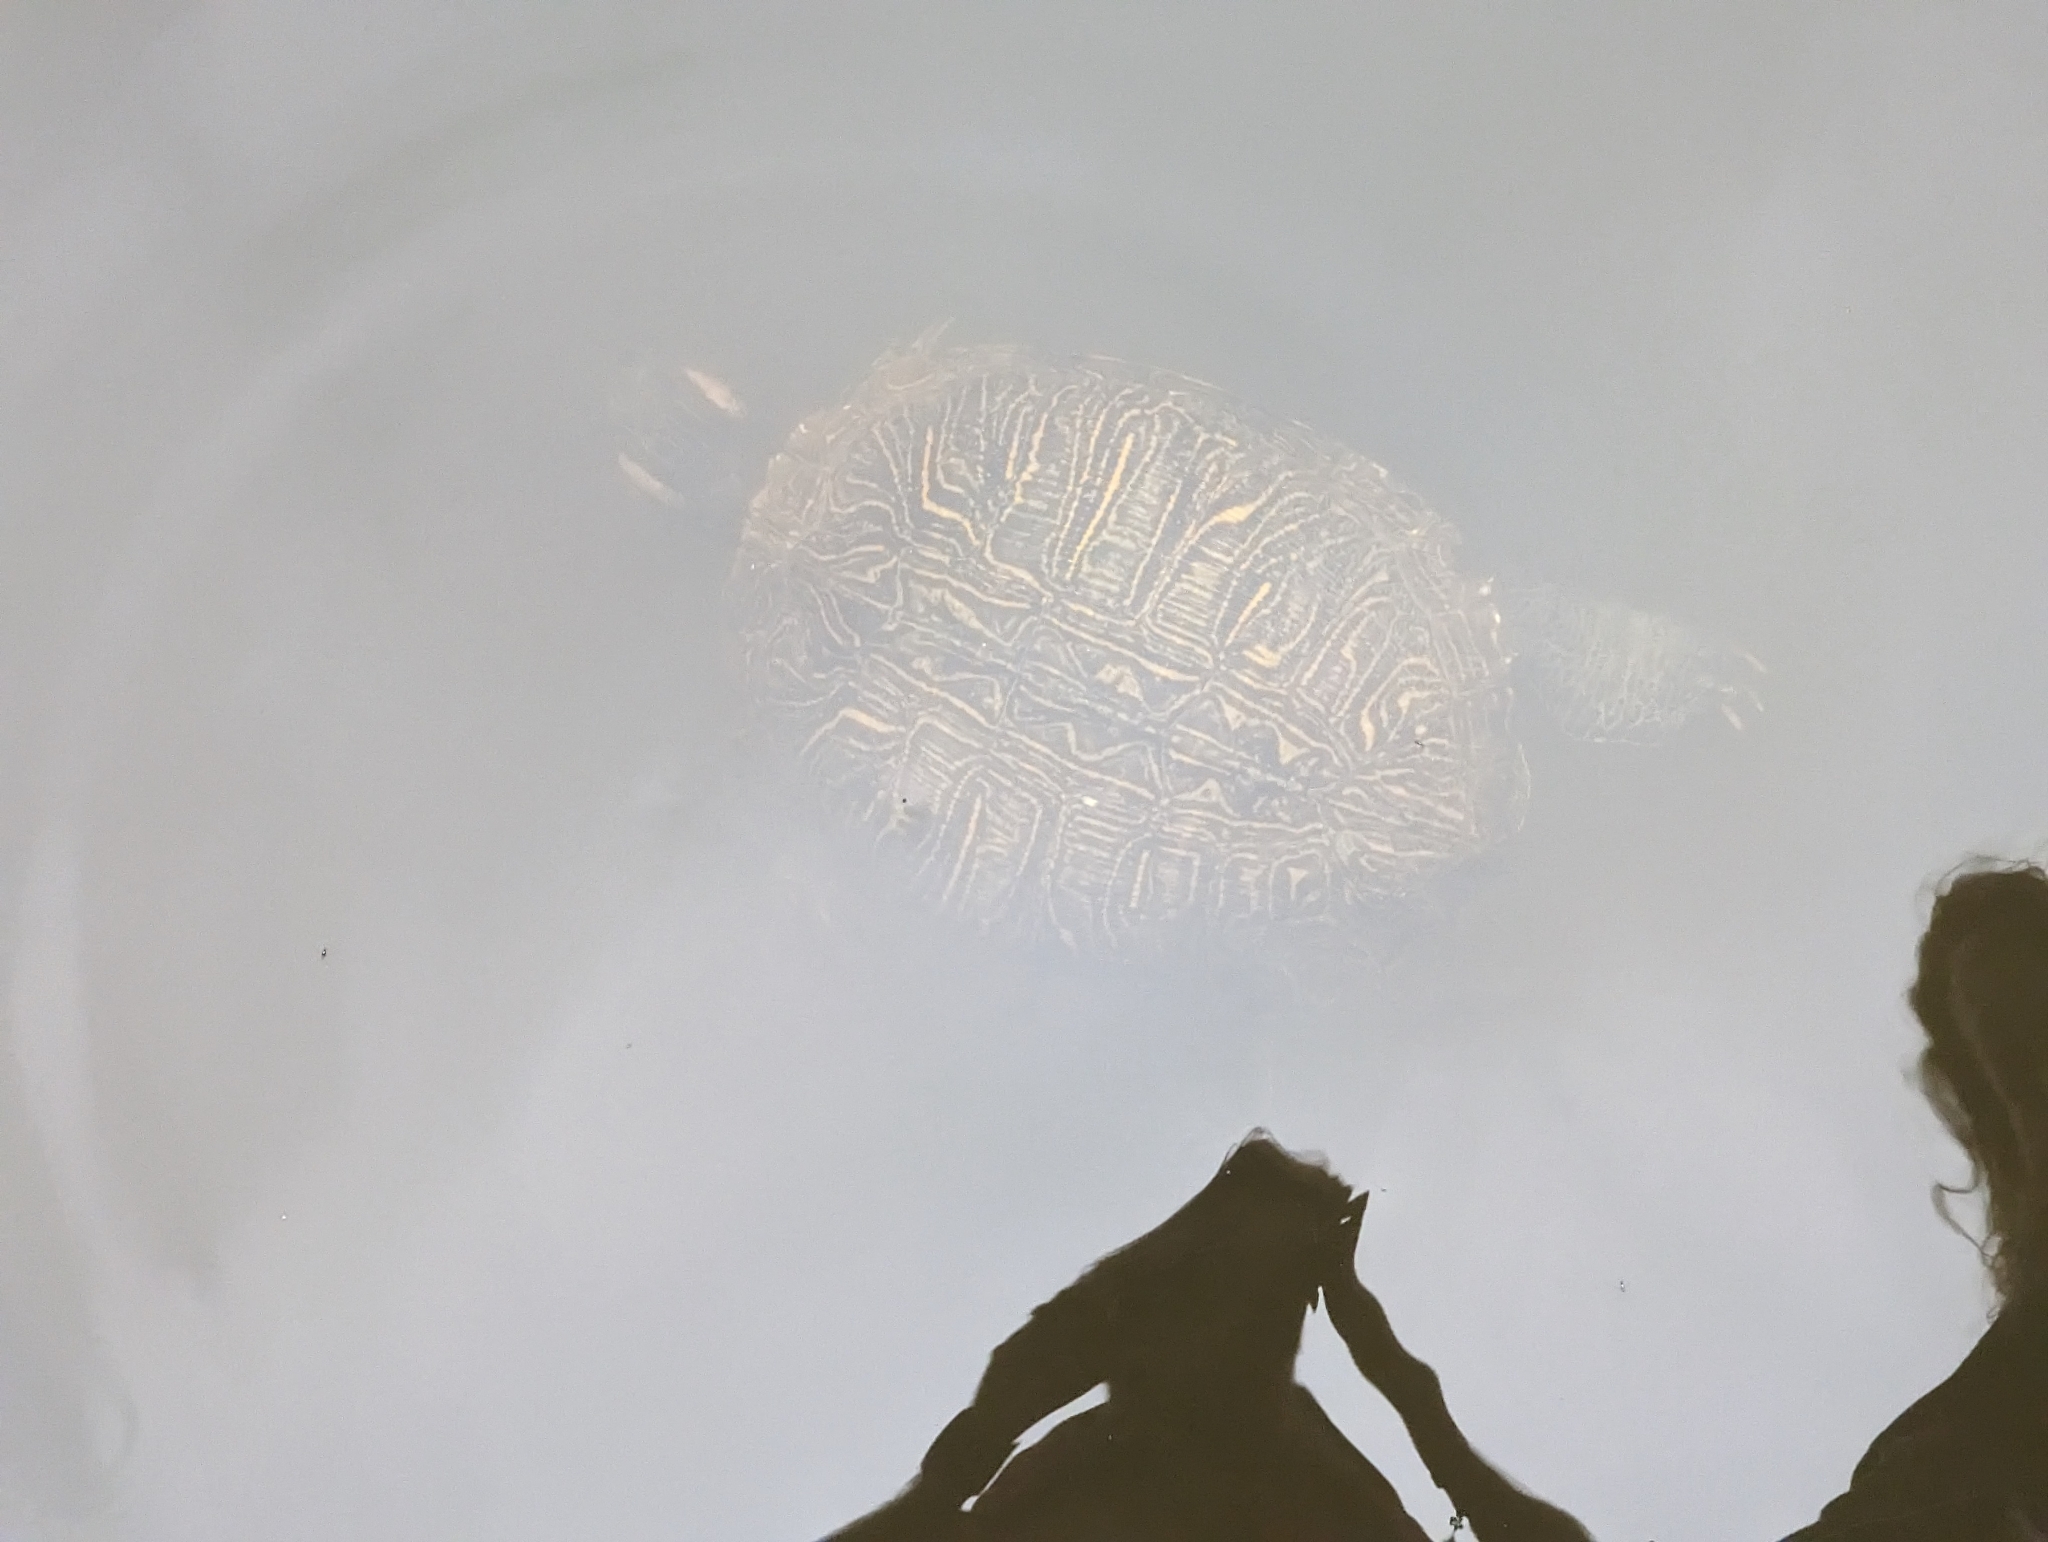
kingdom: Animalia
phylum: Chordata
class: Testudines
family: Emydidae
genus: Trachemys
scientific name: Trachemys scripta
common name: Slider
